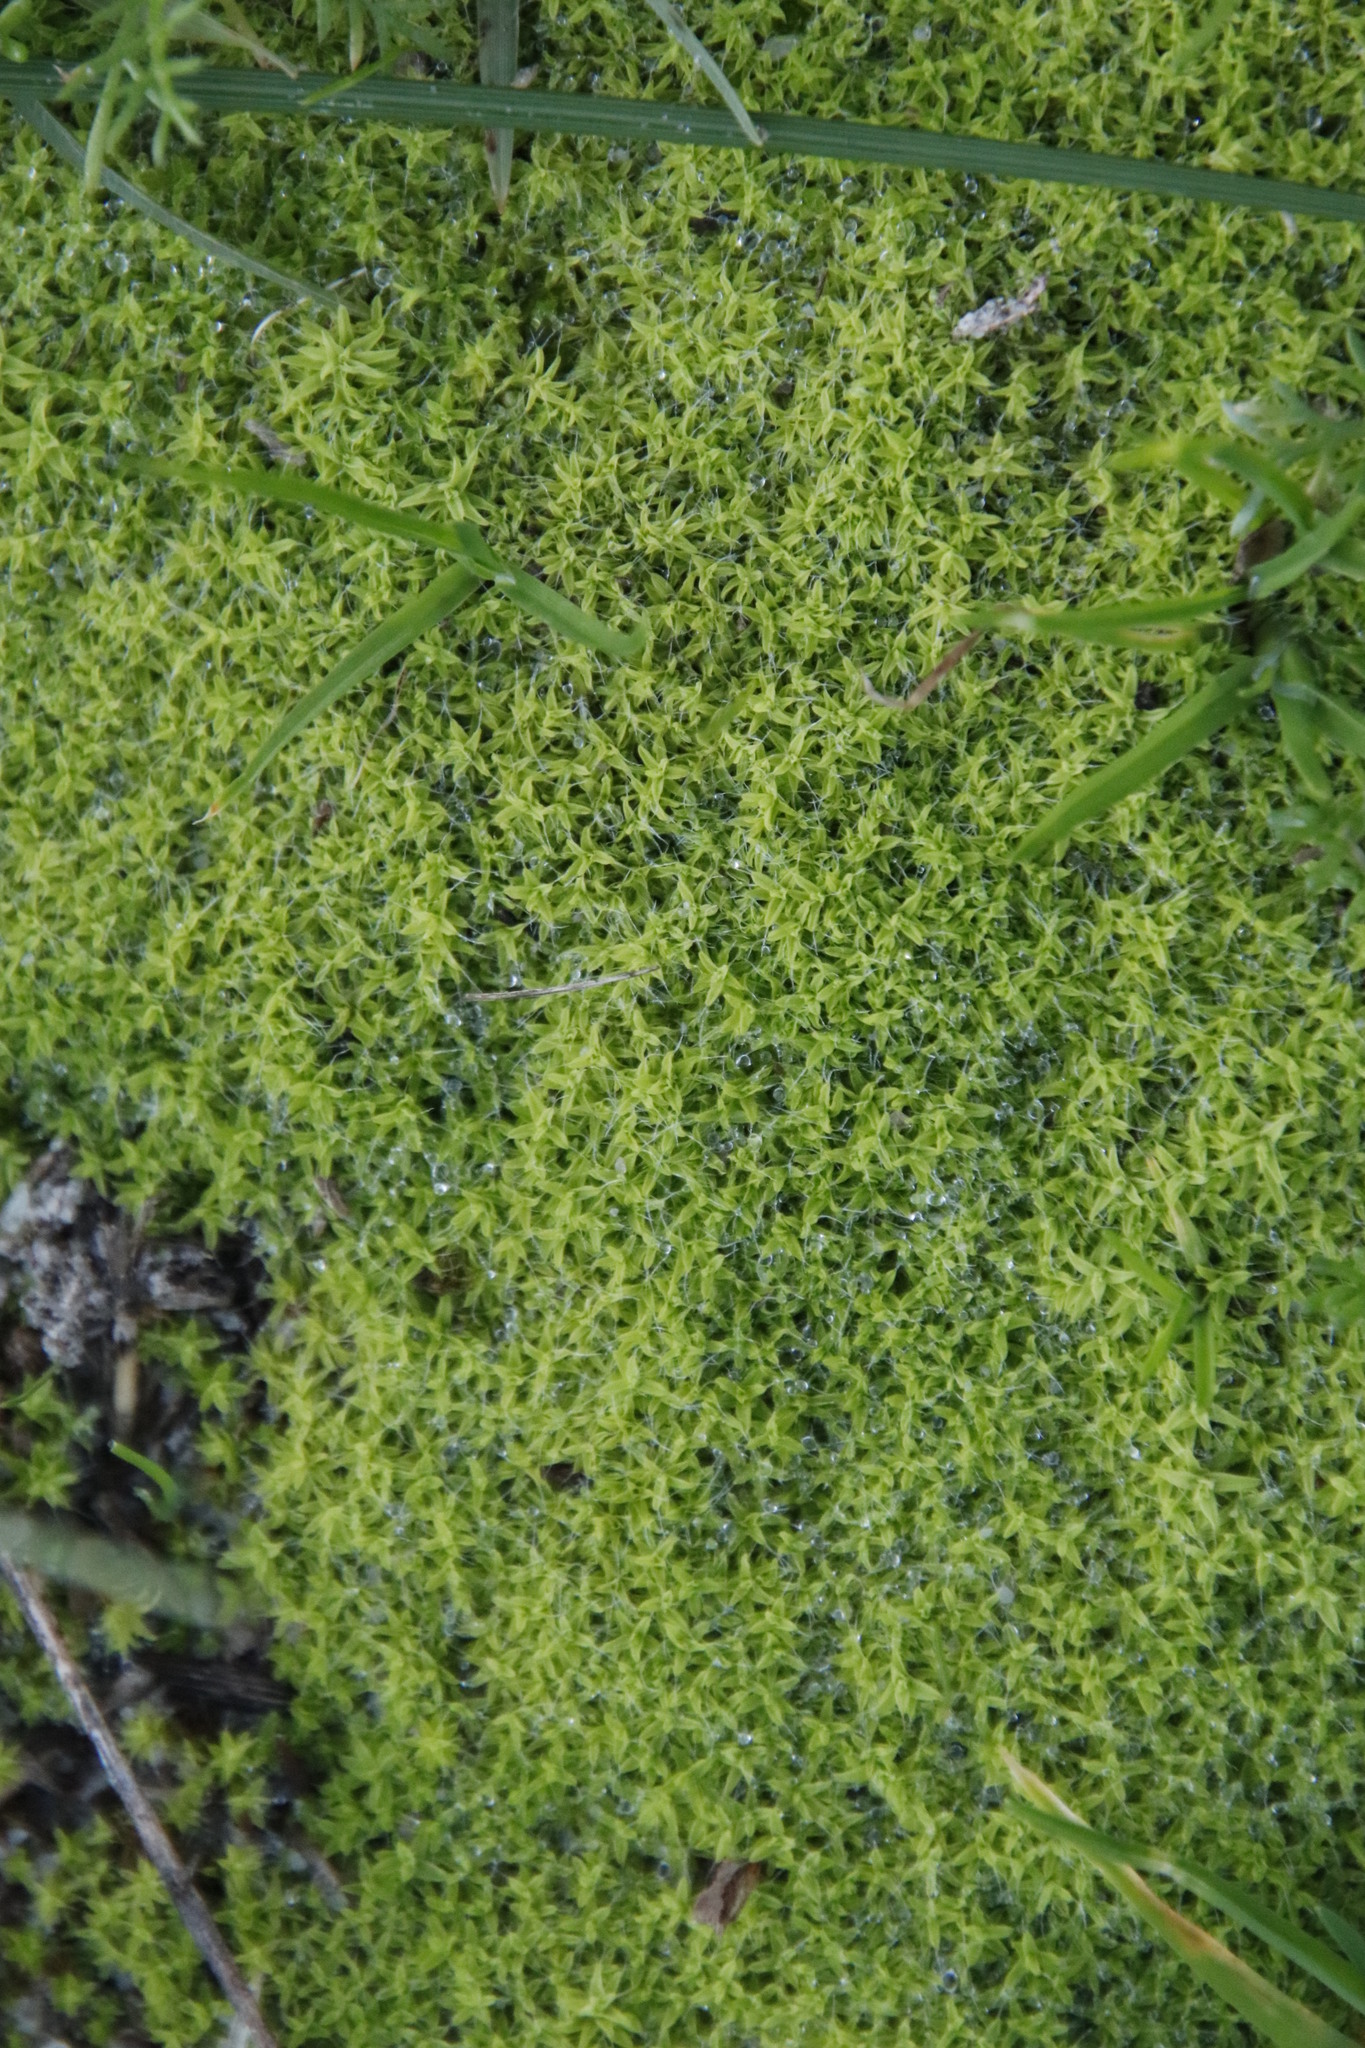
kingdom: Plantae
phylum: Bryophyta
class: Bryopsida
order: Pottiales
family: Pottiaceae
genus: Pseudocrossidium
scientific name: Pseudocrossidium crinitum
